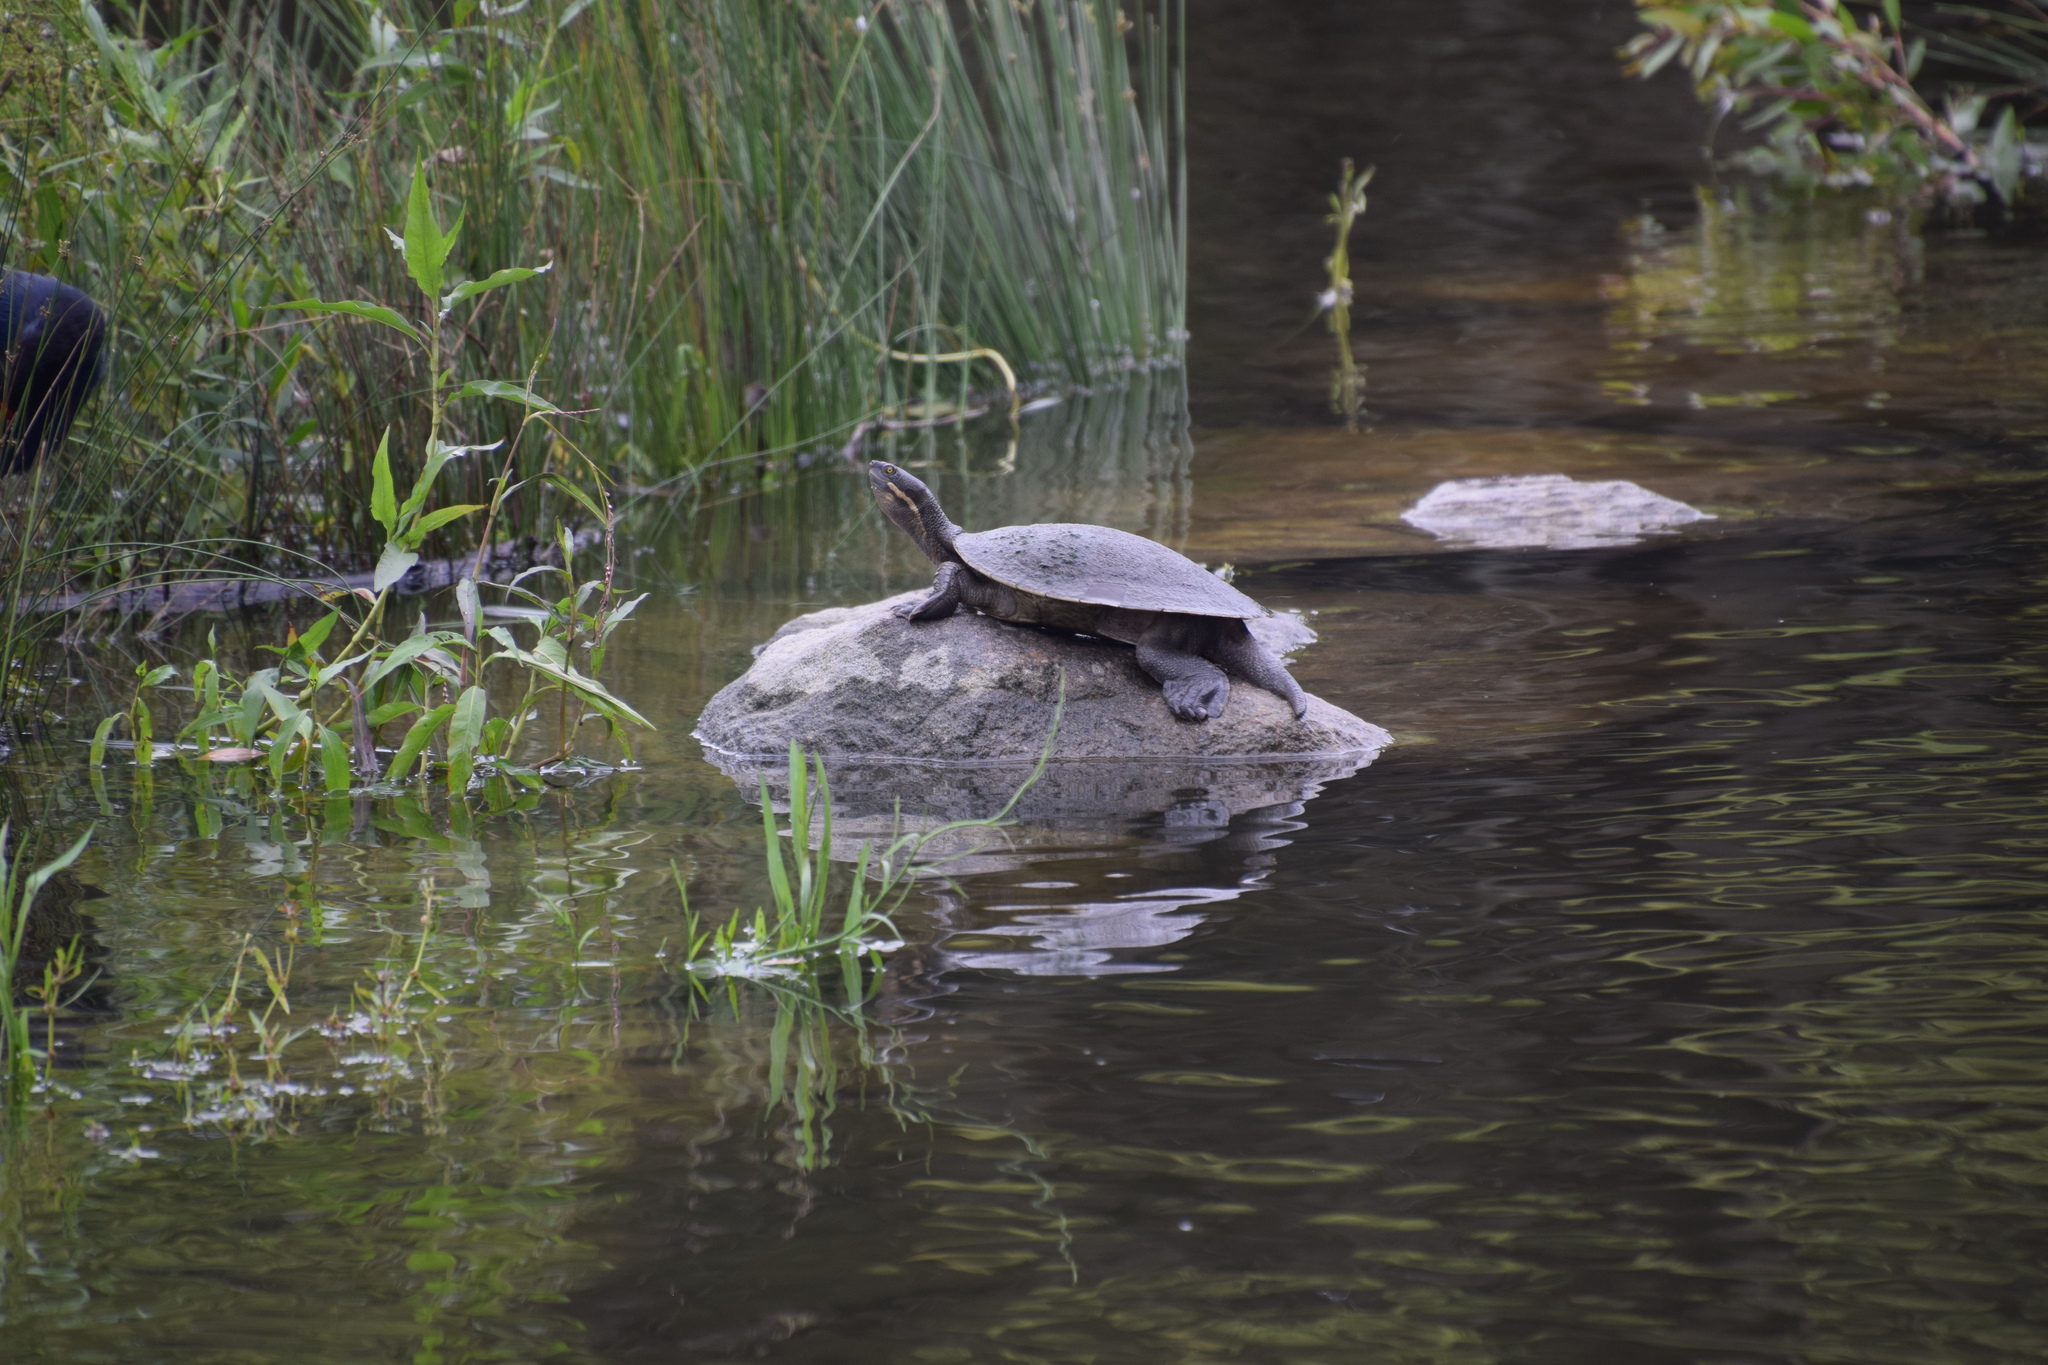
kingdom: Animalia
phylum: Chordata
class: Testudines
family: Chelidae
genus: Emydura
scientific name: Emydura macquarii
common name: Murray river turtle
